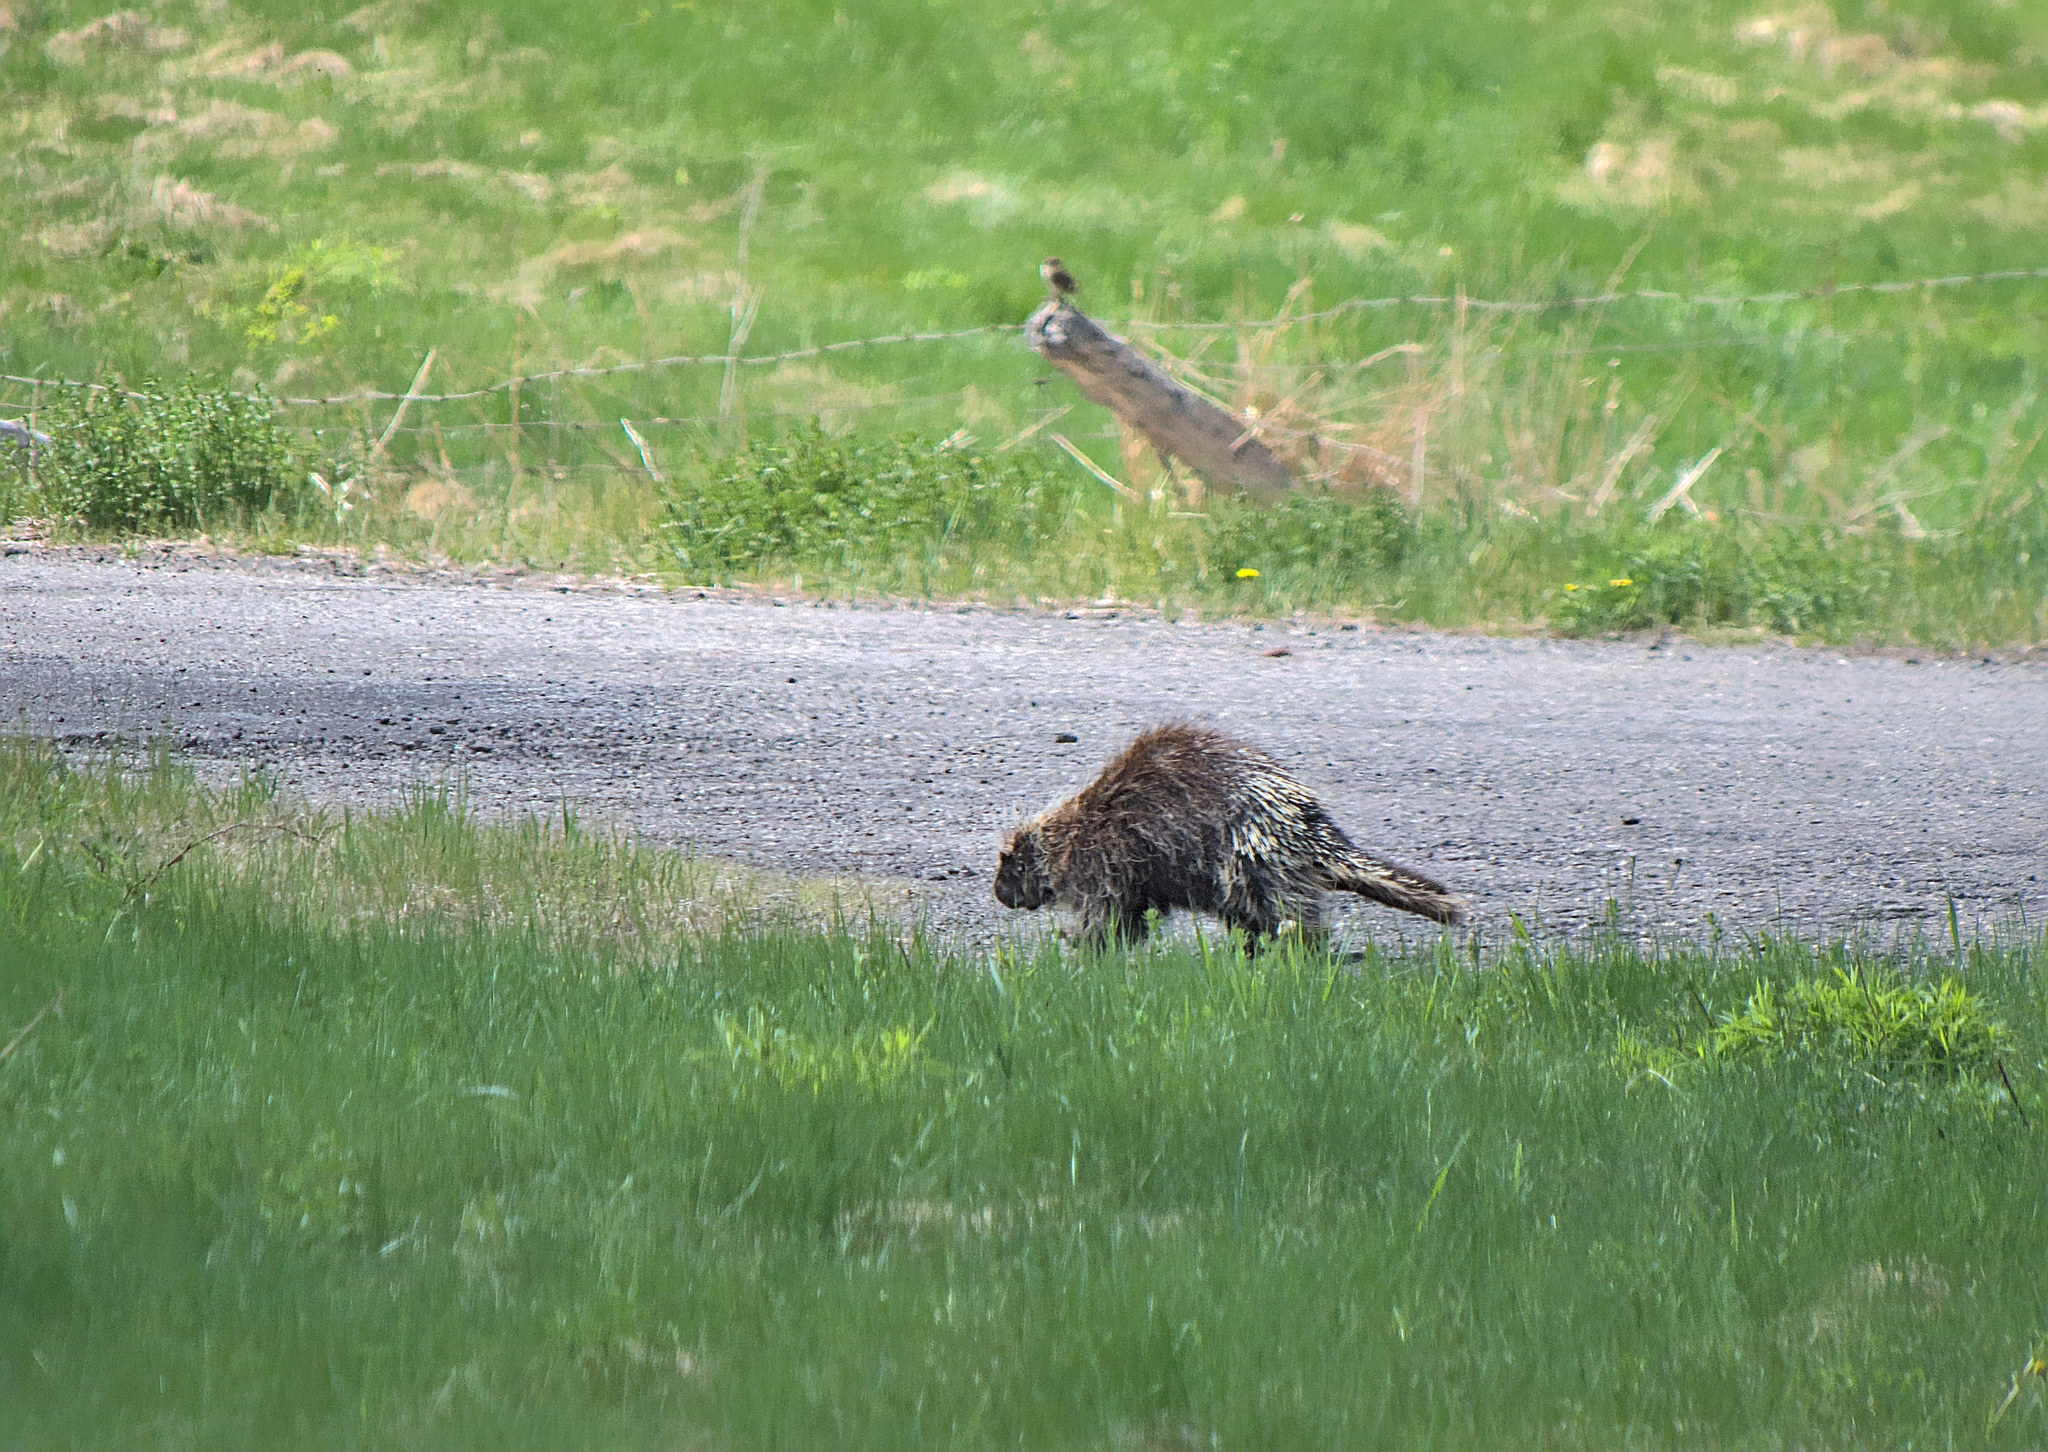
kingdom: Animalia
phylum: Chordata
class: Mammalia
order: Rodentia
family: Erethizontidae
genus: Erethizon
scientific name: Erethizon dorsatus
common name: North american porcupine
